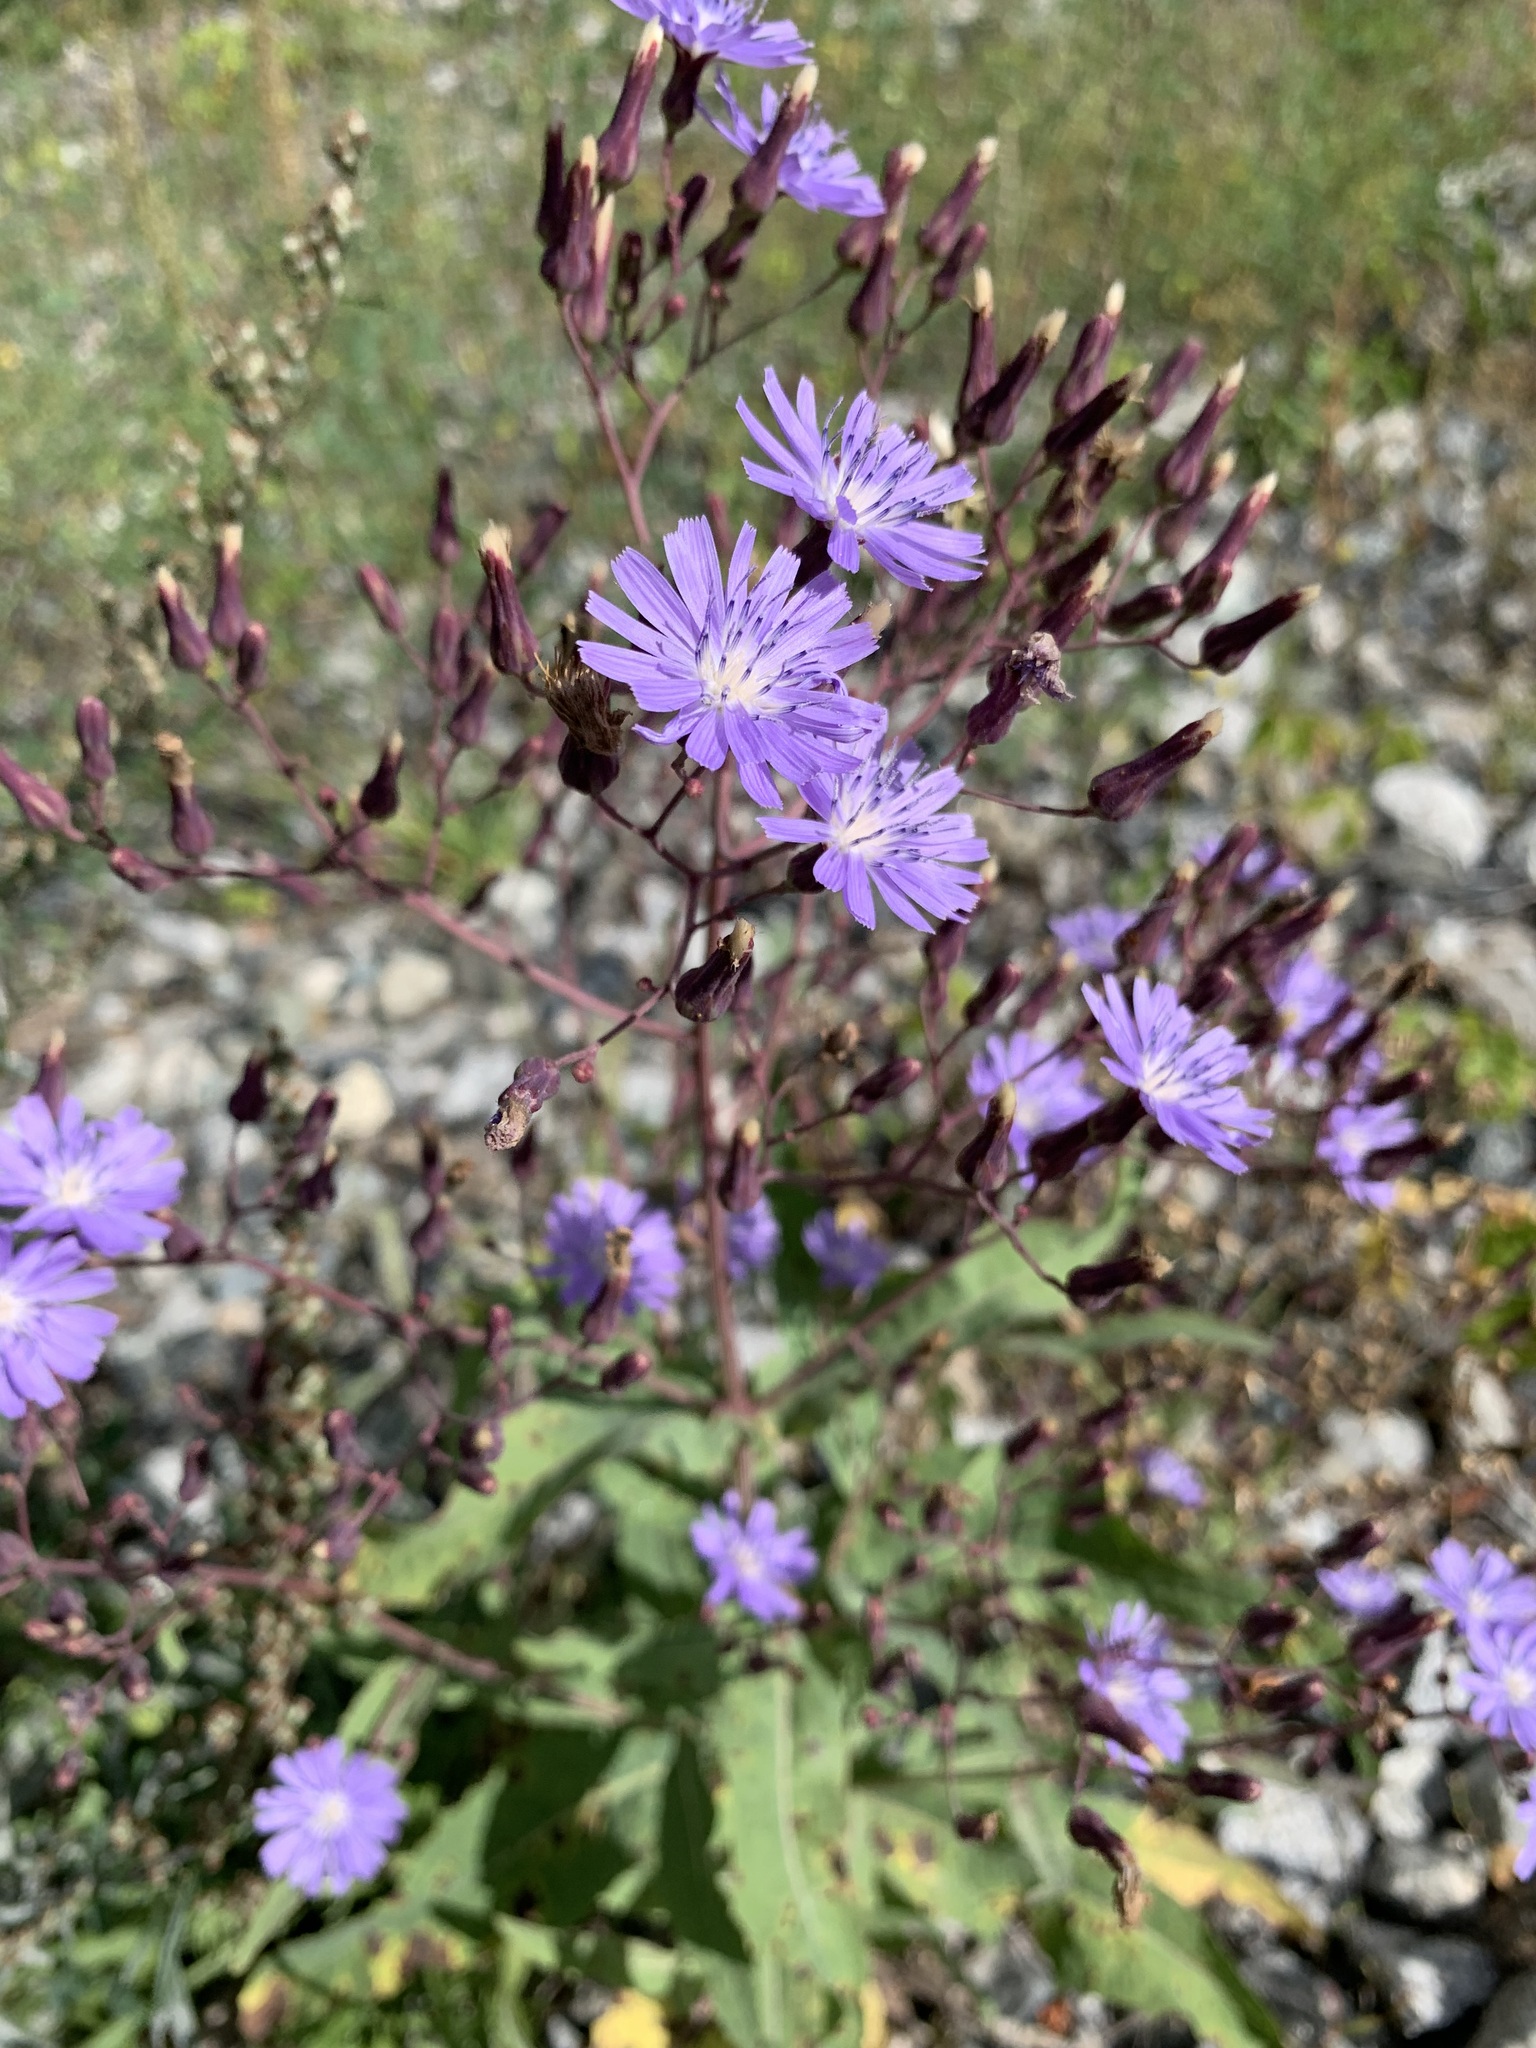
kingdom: Plantae
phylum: Tracheophyta
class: Magnoliopsida
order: Asterales
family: Asteraceae
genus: Lactuca
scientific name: Lactuca tatarica
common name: Blue lettuce
